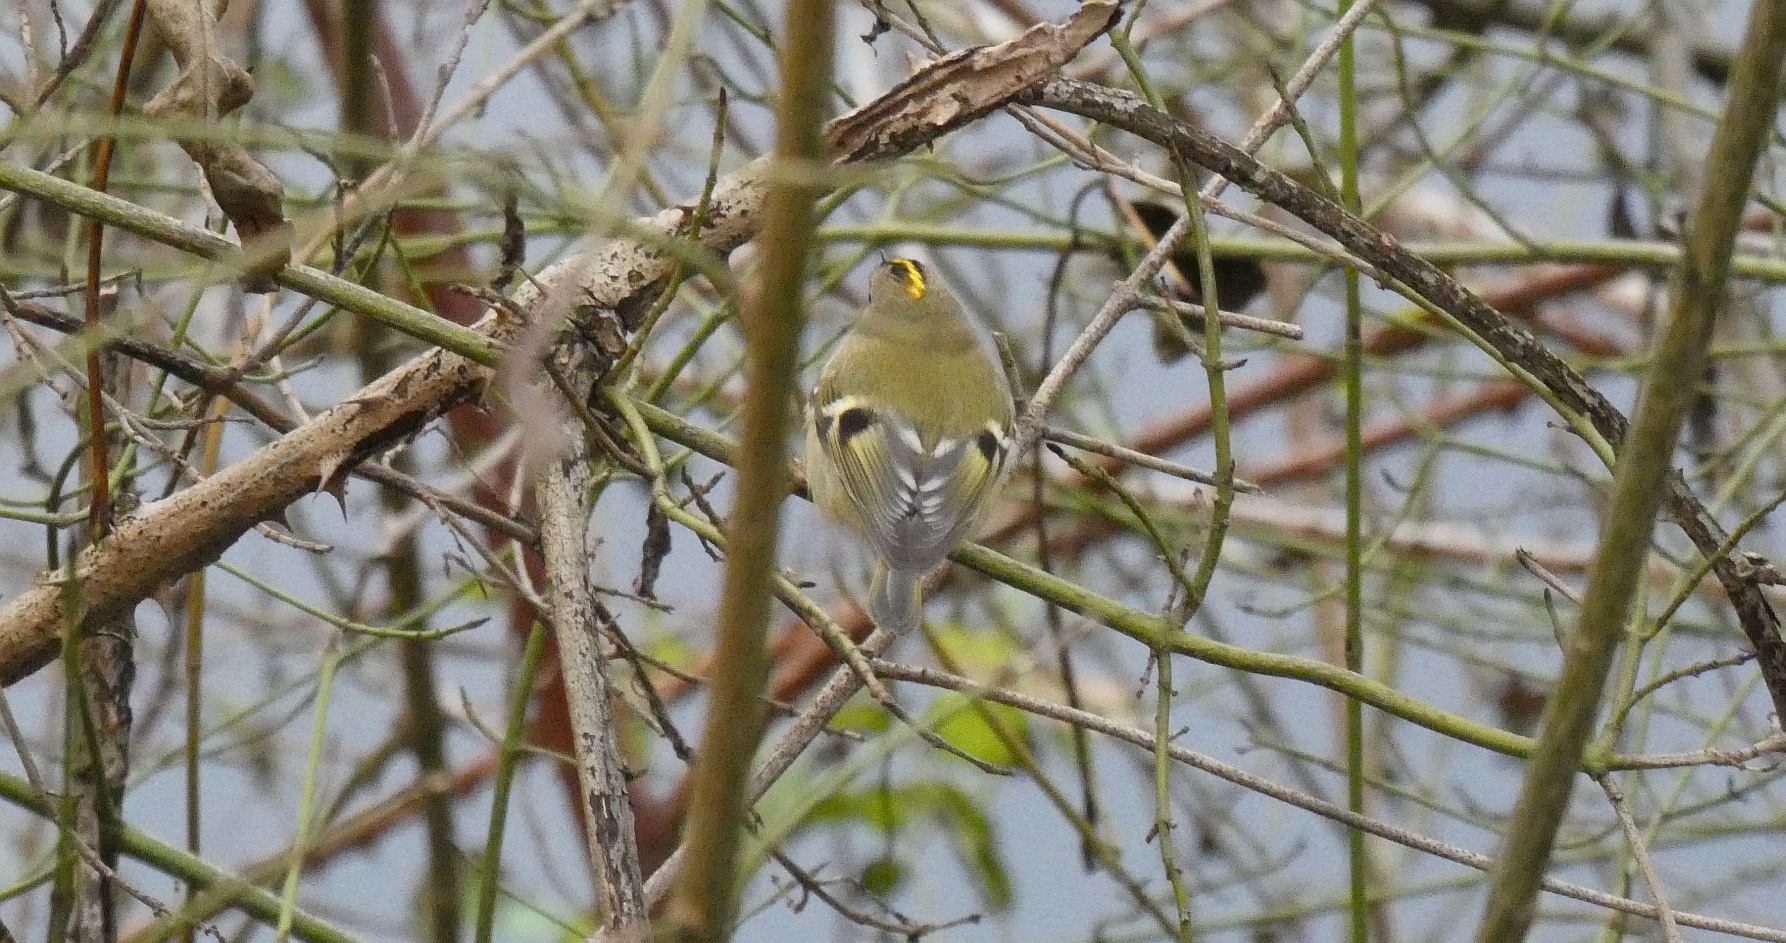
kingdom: Animalia
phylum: Chordata
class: Aves
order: Passeriformes
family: Regulidae
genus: Regulus
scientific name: Regulus regulus
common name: Goldcrest
